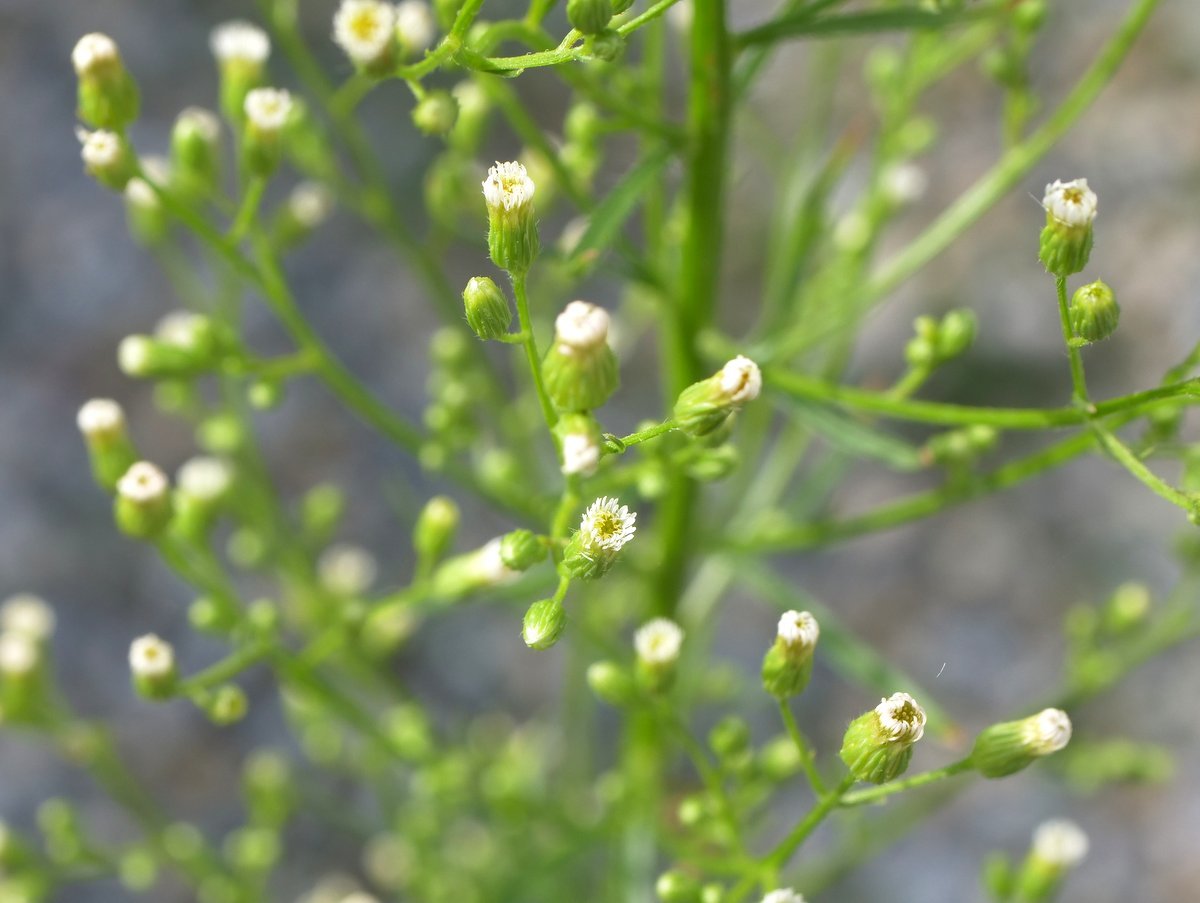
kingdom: Plantae
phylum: Tracheophyta
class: Magnoliopsida
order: Asterales
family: Asteraceae
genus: Erigeron
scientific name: Erigeron canadensis
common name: Canadian fleabane
